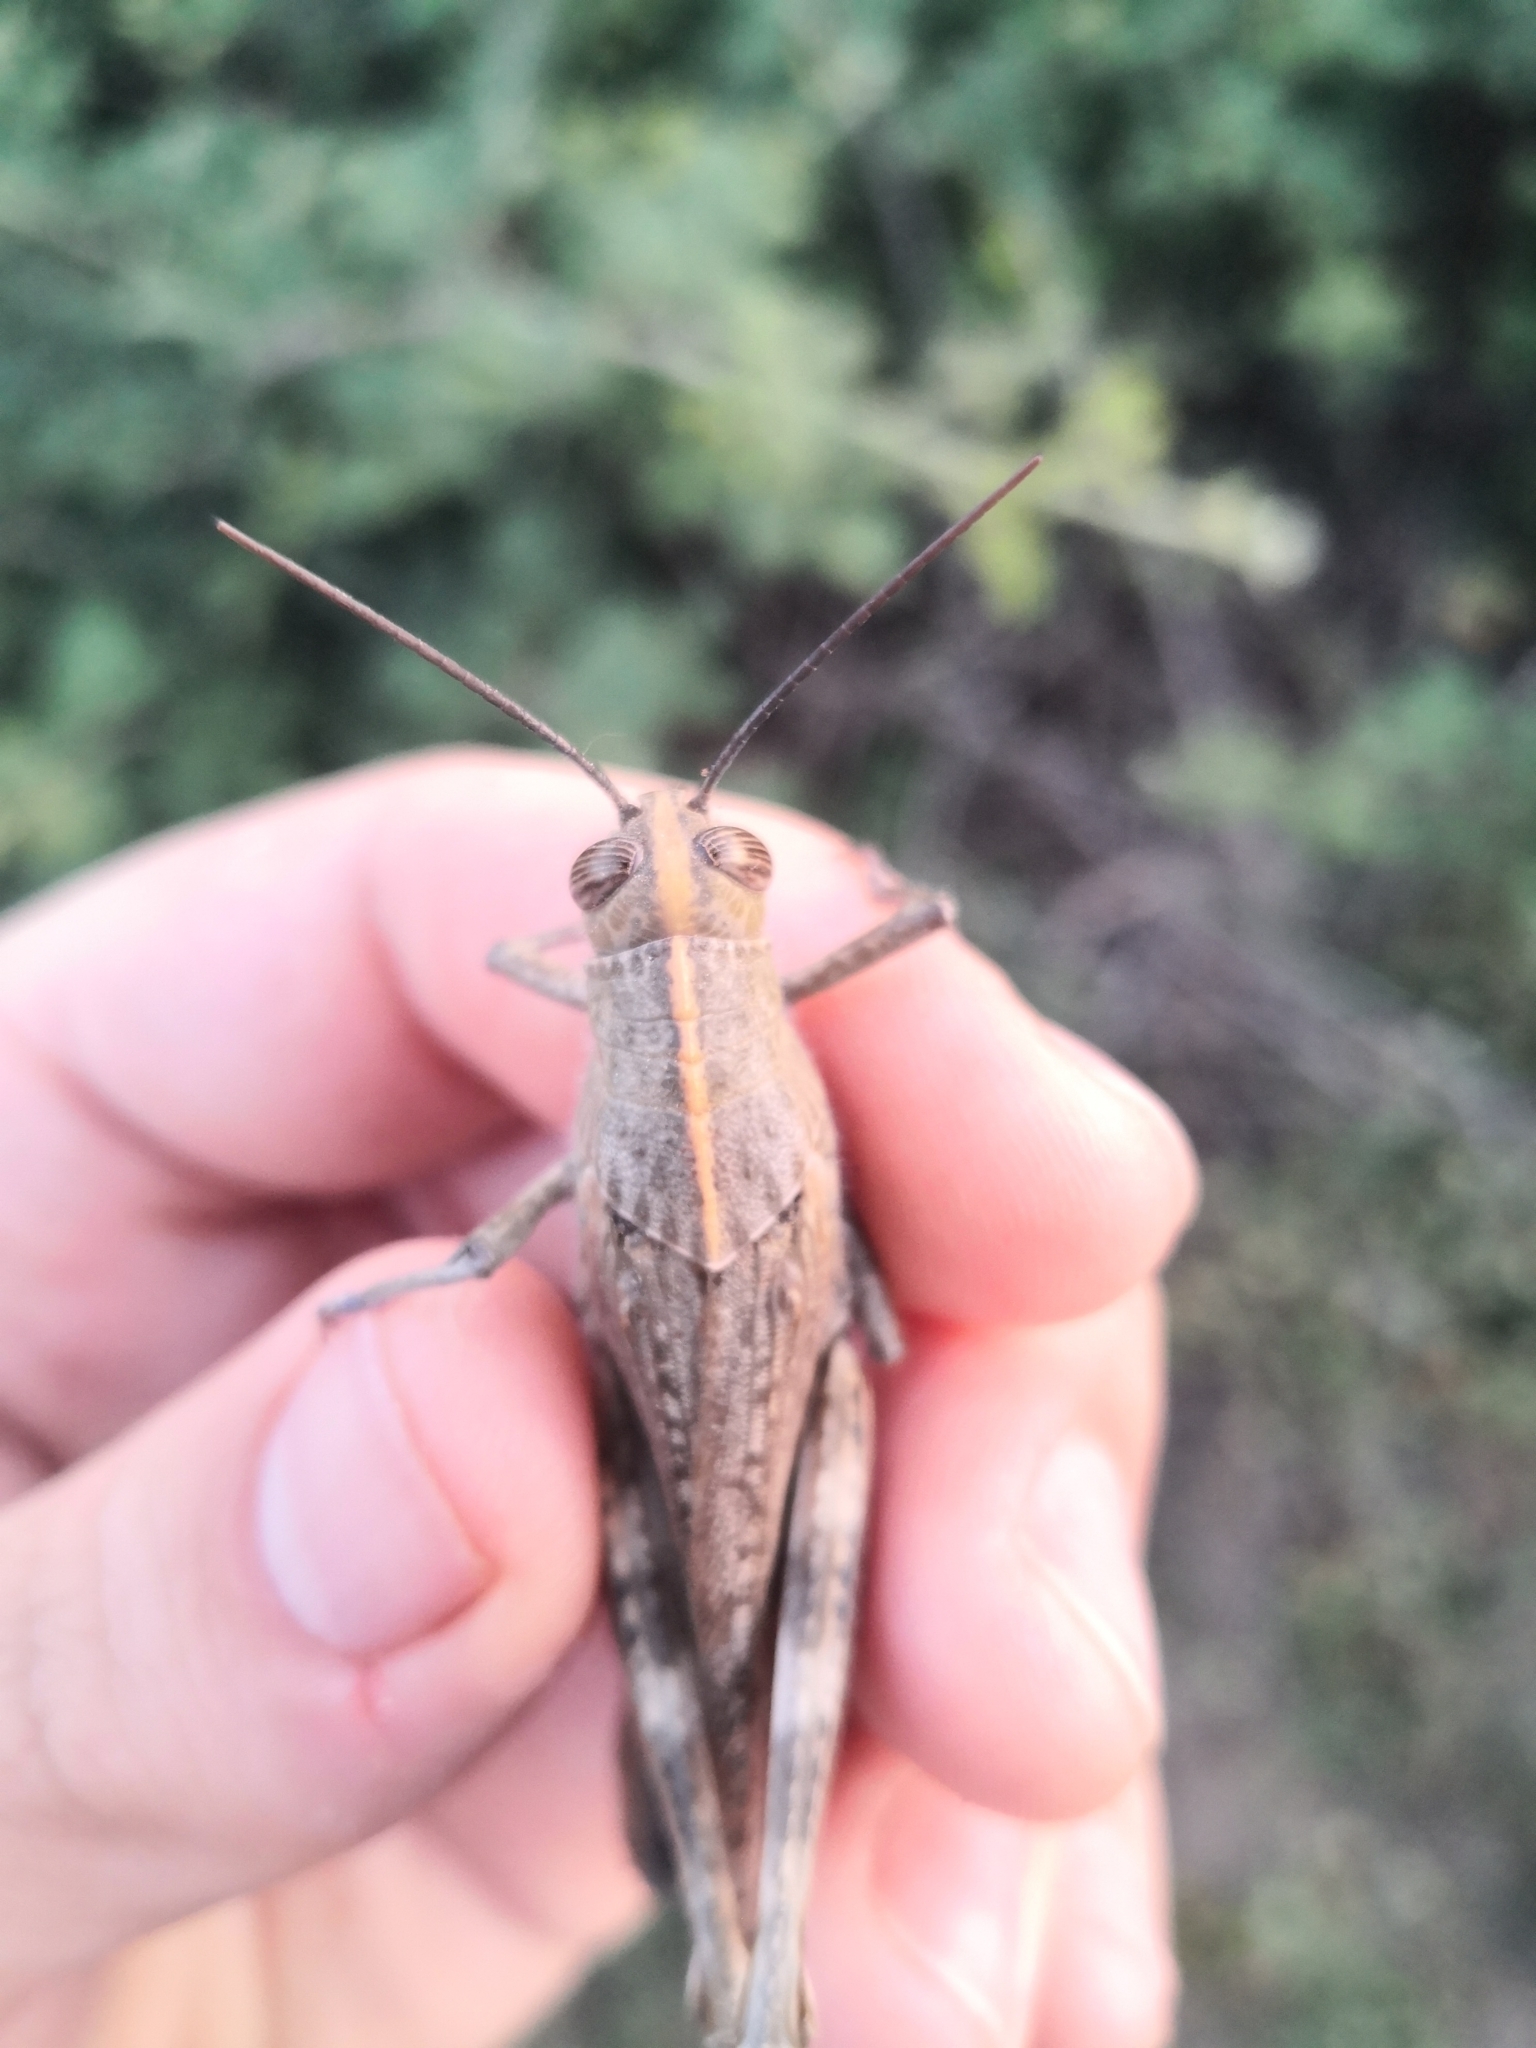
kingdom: Animalia
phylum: Arthropoda
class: Insecta
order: Orthoptera
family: Acrididae
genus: Anacridium
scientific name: Anacridium aegyptium
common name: Egyptian grasshopper
